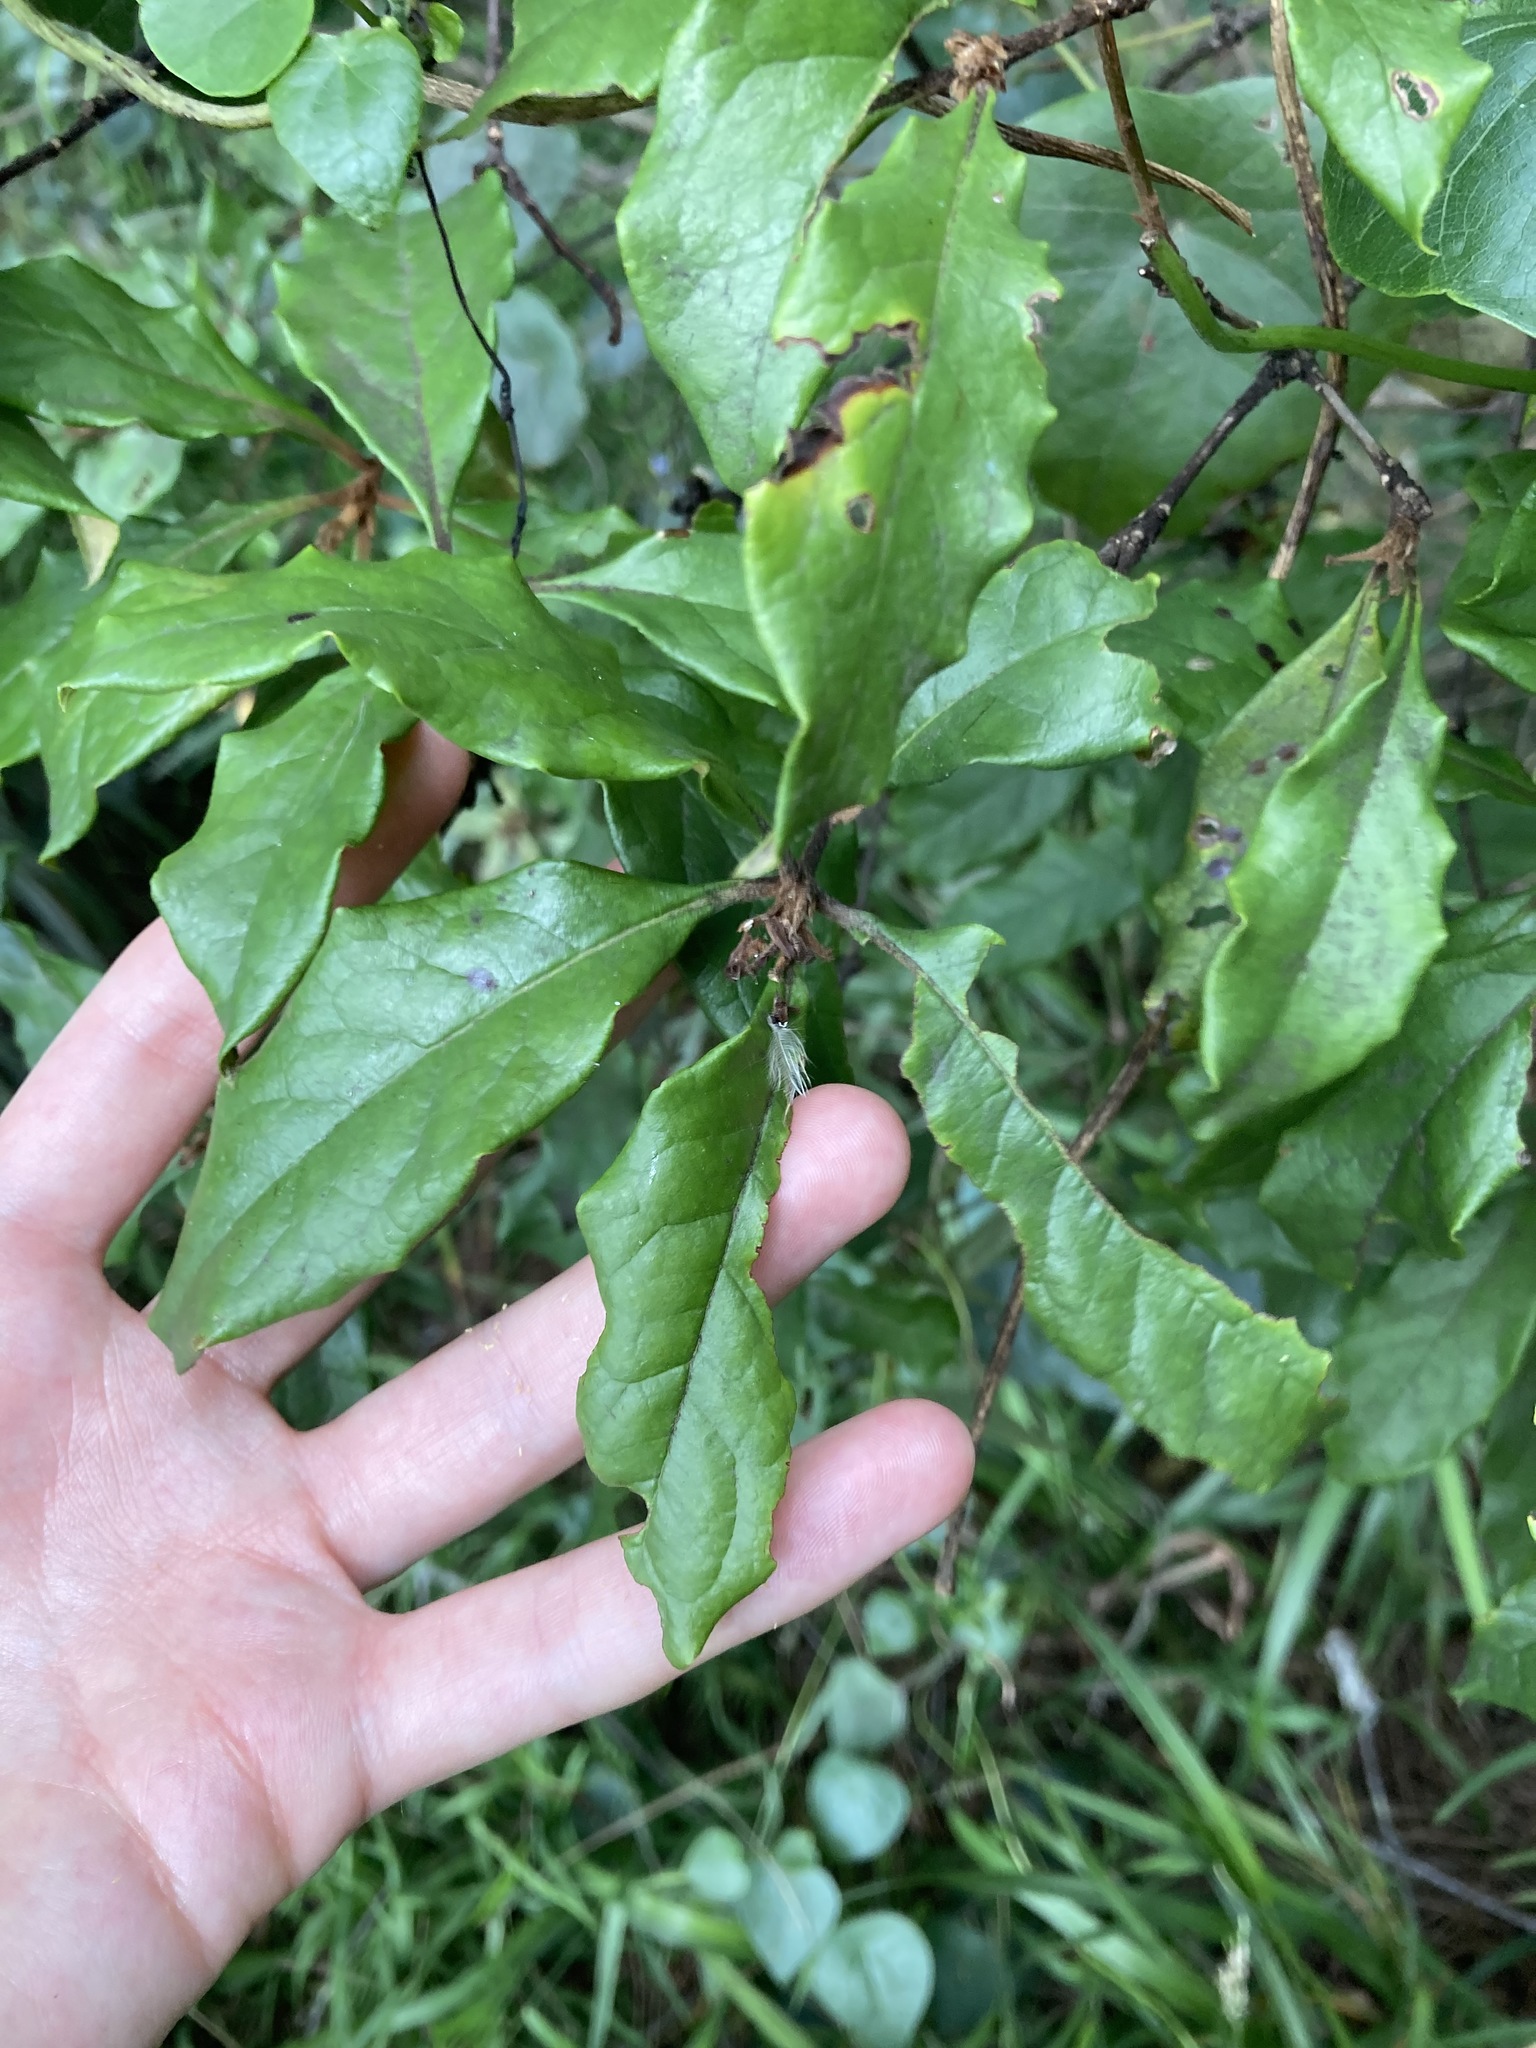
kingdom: Plantae
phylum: Tracheophyta
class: Magnoliopsida
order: Apiales
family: Pittosporaceae
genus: Pittosporum
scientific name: Pittosporum revolutum
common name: Brisbane-laurel
